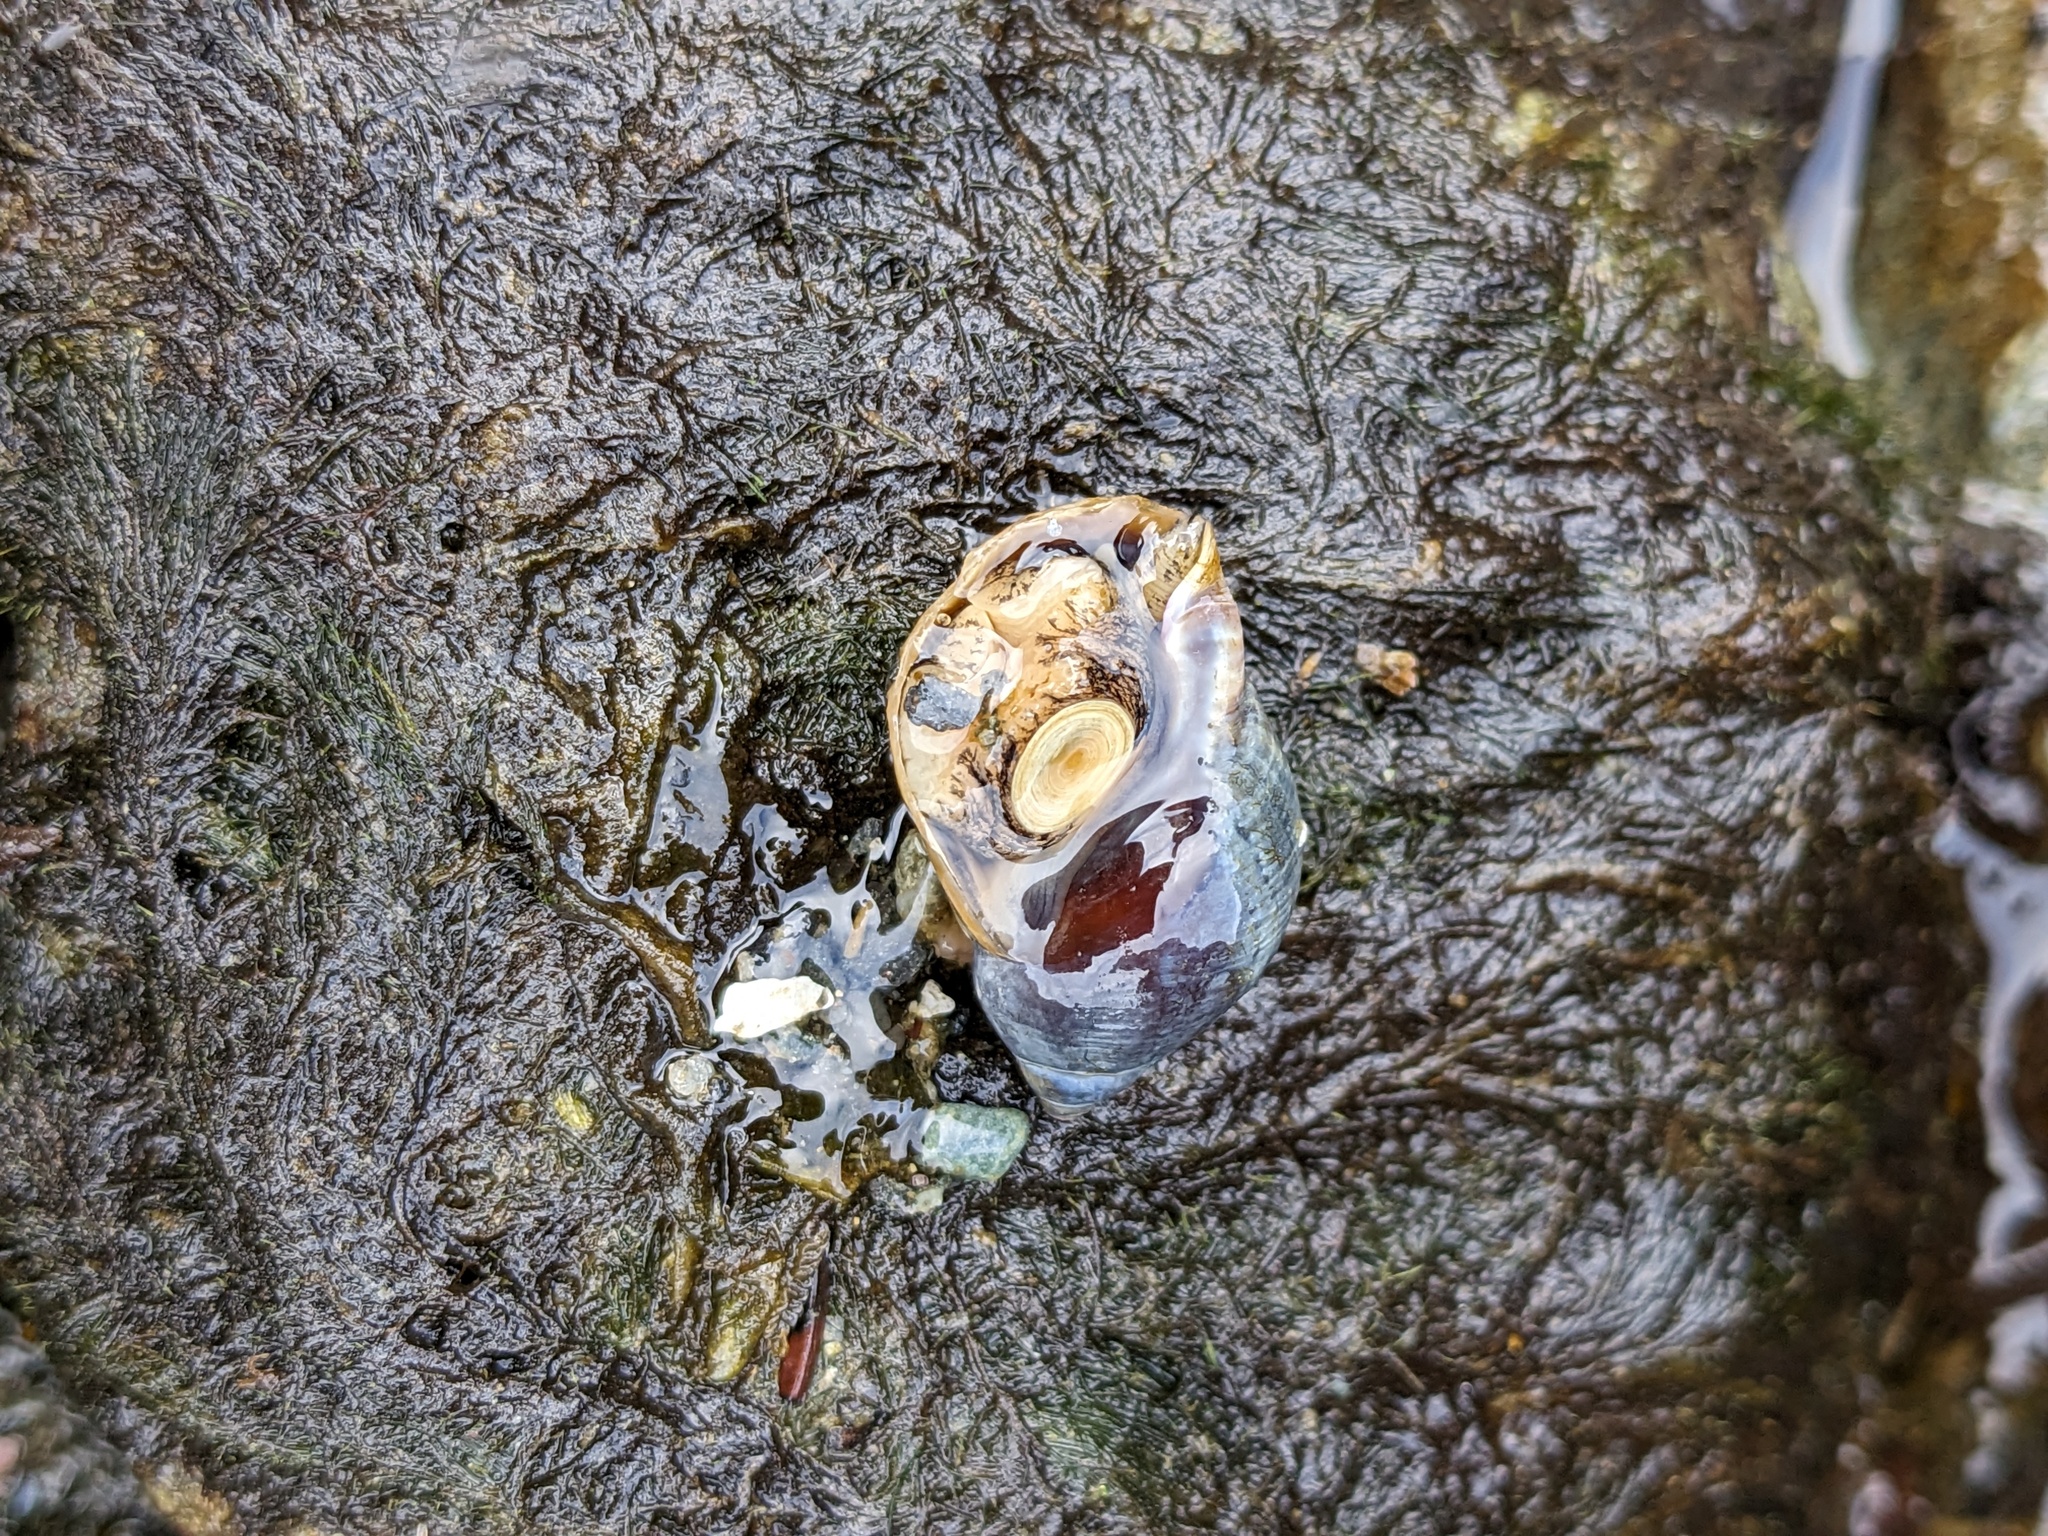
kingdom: Animalia
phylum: Mollusca
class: Gastropoda
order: Neogastropoda
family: Buccinidae
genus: Buccinum
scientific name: Buccinum baerii
